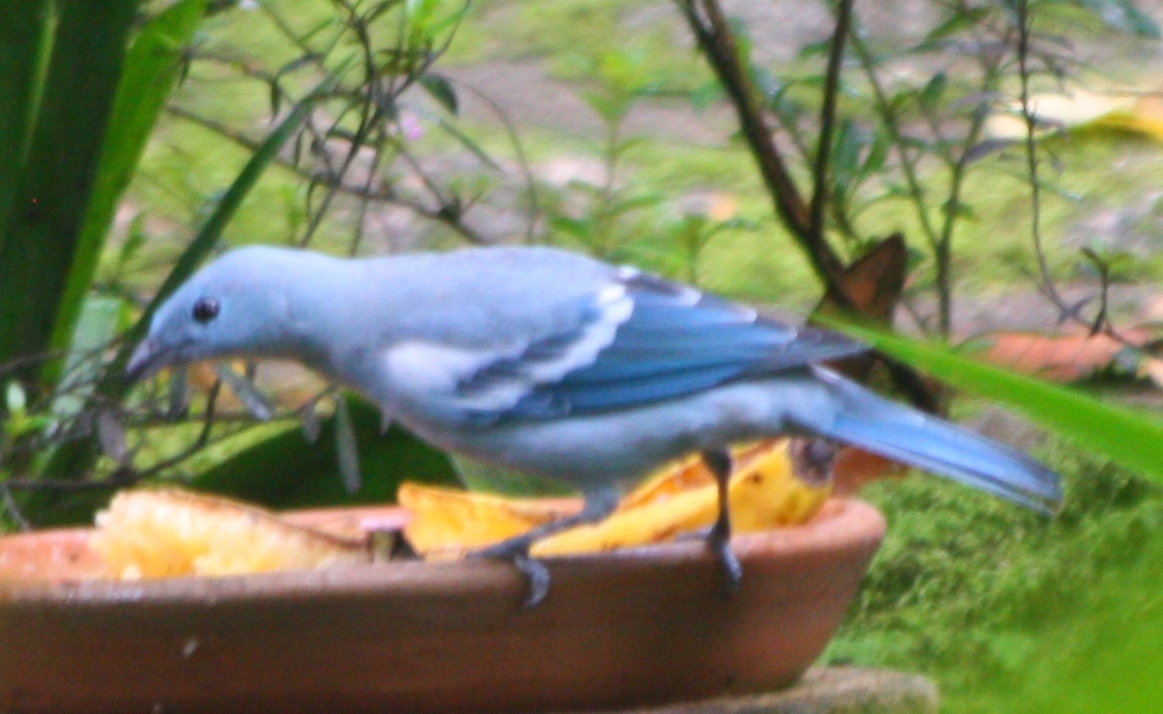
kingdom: Animalia
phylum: Chordata
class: Aves
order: Passeriformes
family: Thraupidae
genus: Thraupis
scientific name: Thraupis episcopus
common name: Blue-grey tanager
